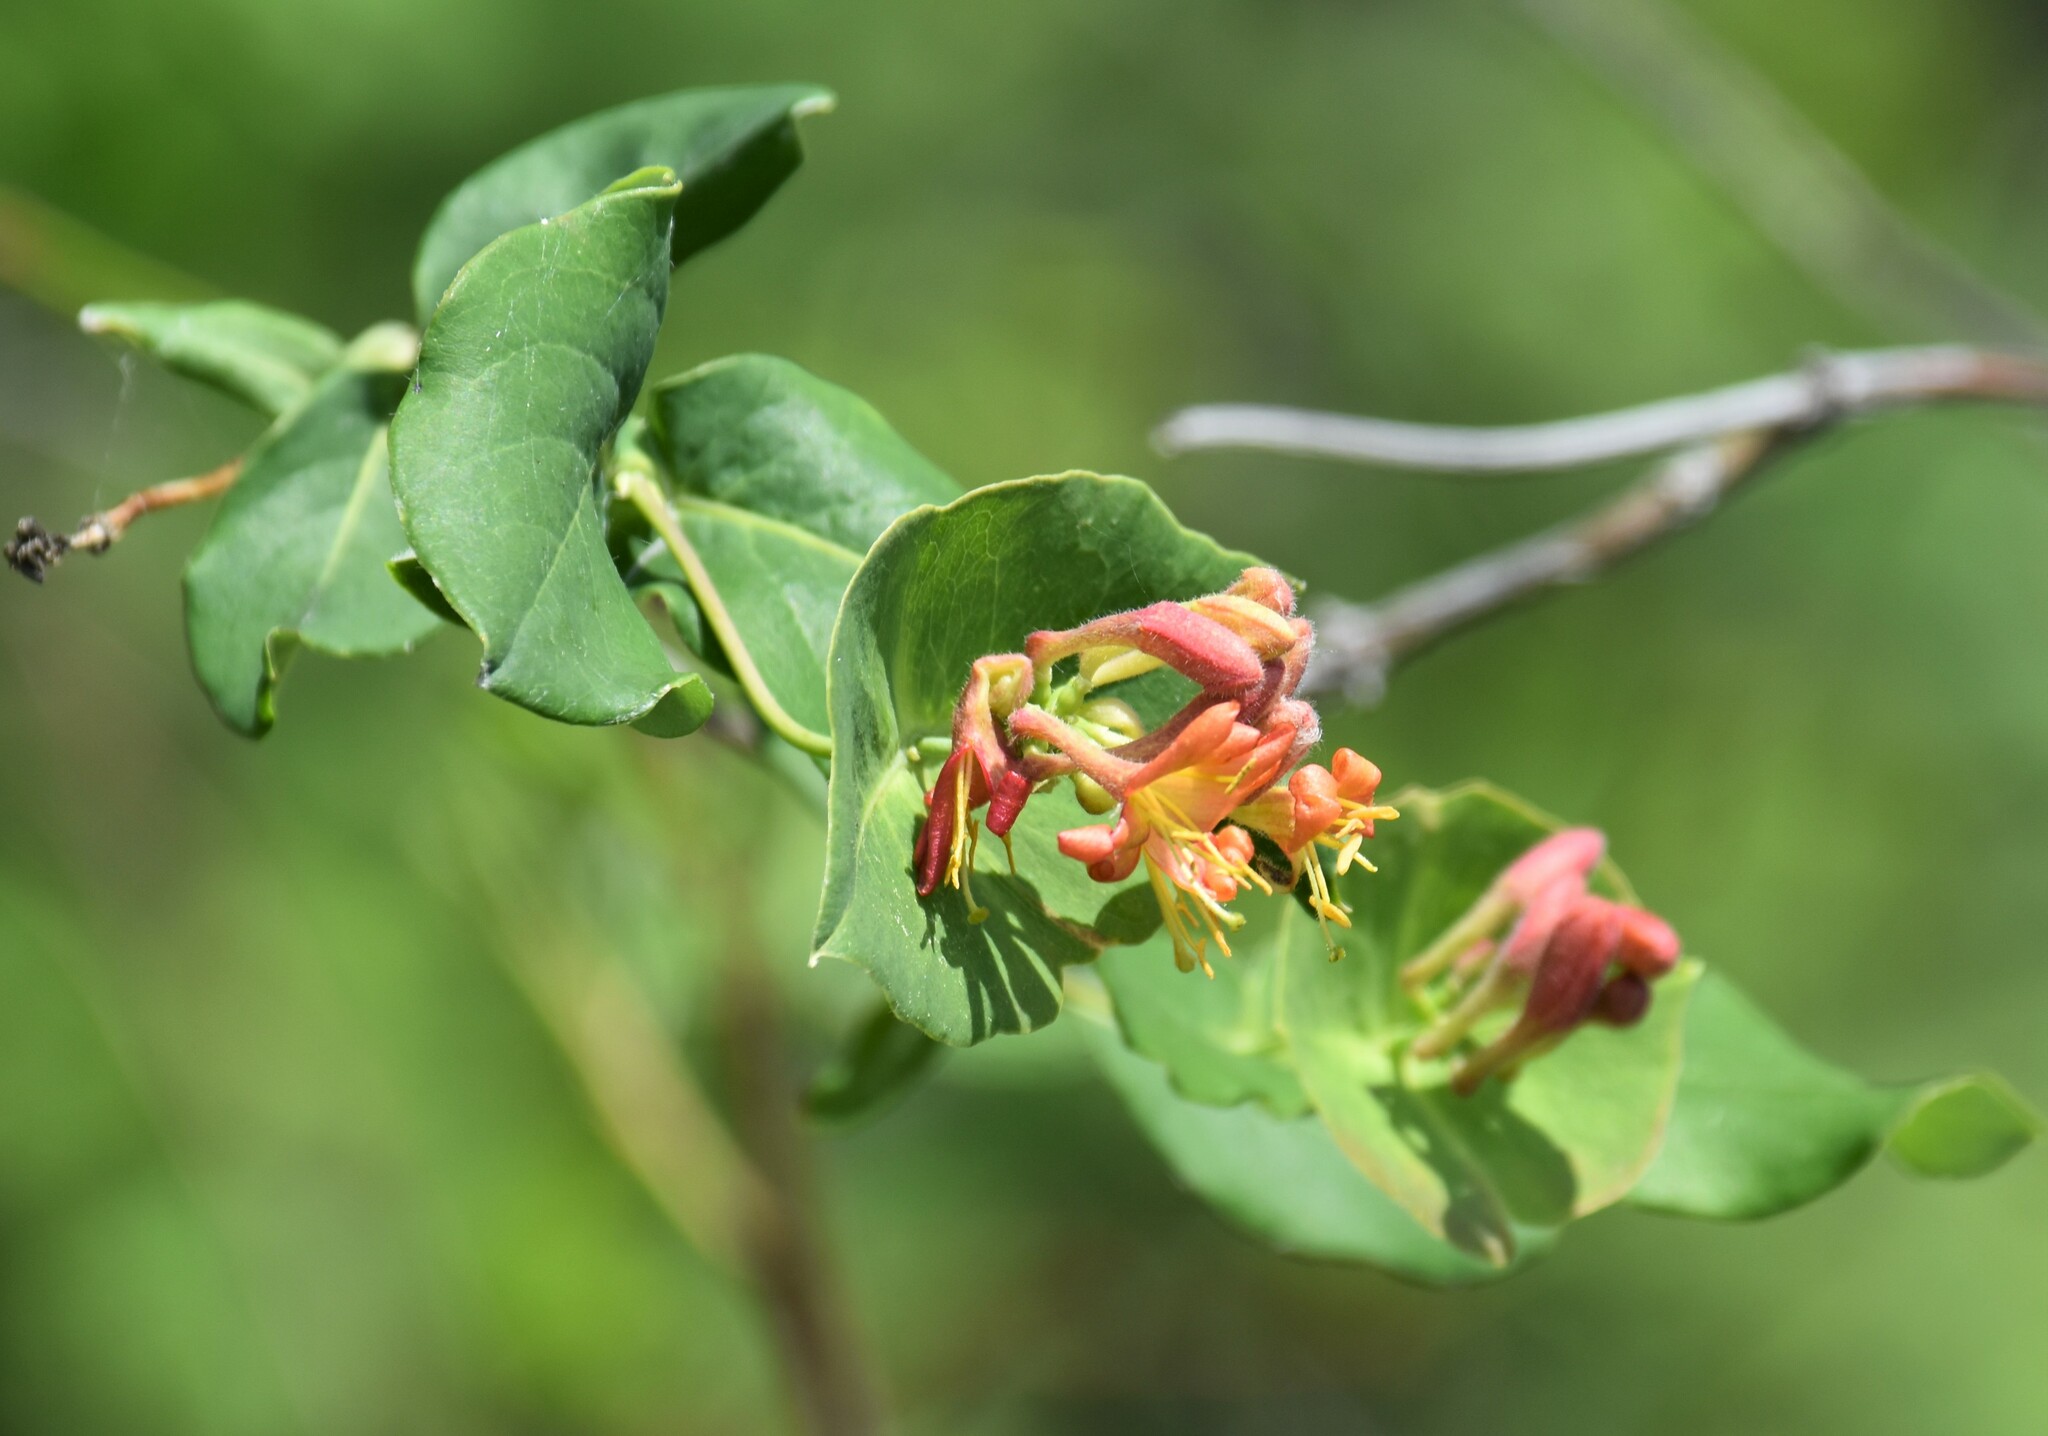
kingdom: Plantae
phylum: Tracheophyta
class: Magnoliopsida
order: Dipsacales
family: Caprifoliaceae
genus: Lonicera
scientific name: Lonicera dioica
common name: Limber honeysuckle
